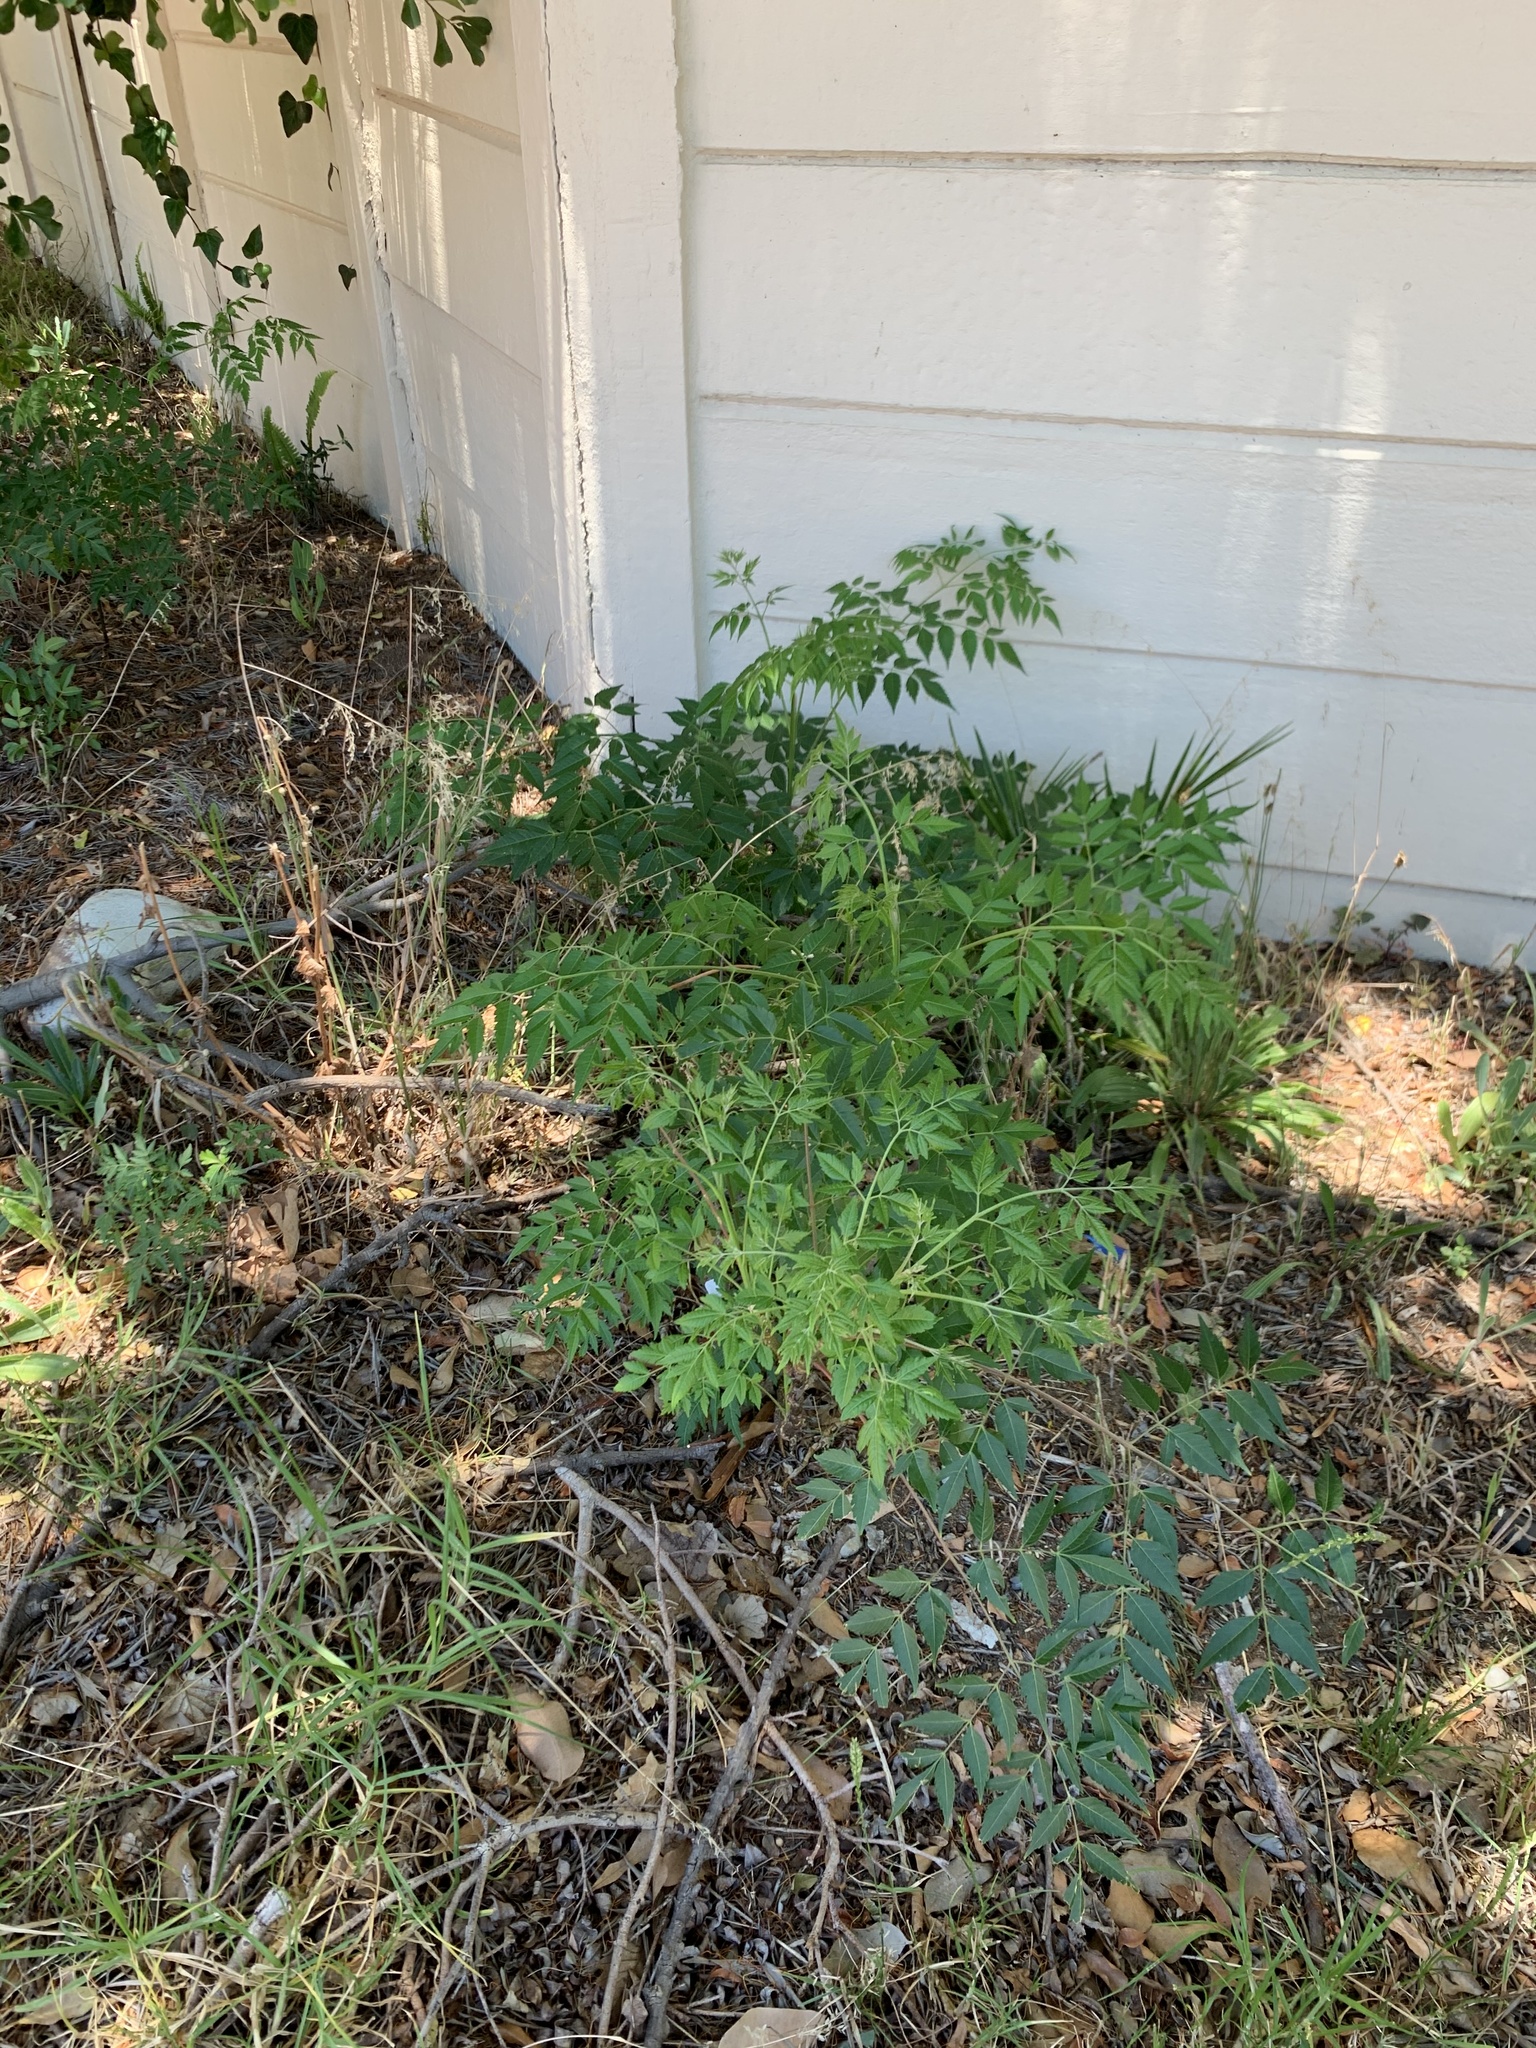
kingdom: Plantae
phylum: Tracheophyta
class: Magnoliopsida
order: Sapindales
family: Meliaceae
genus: Melia
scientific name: Melia azedarach
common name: Chinaberrytree
